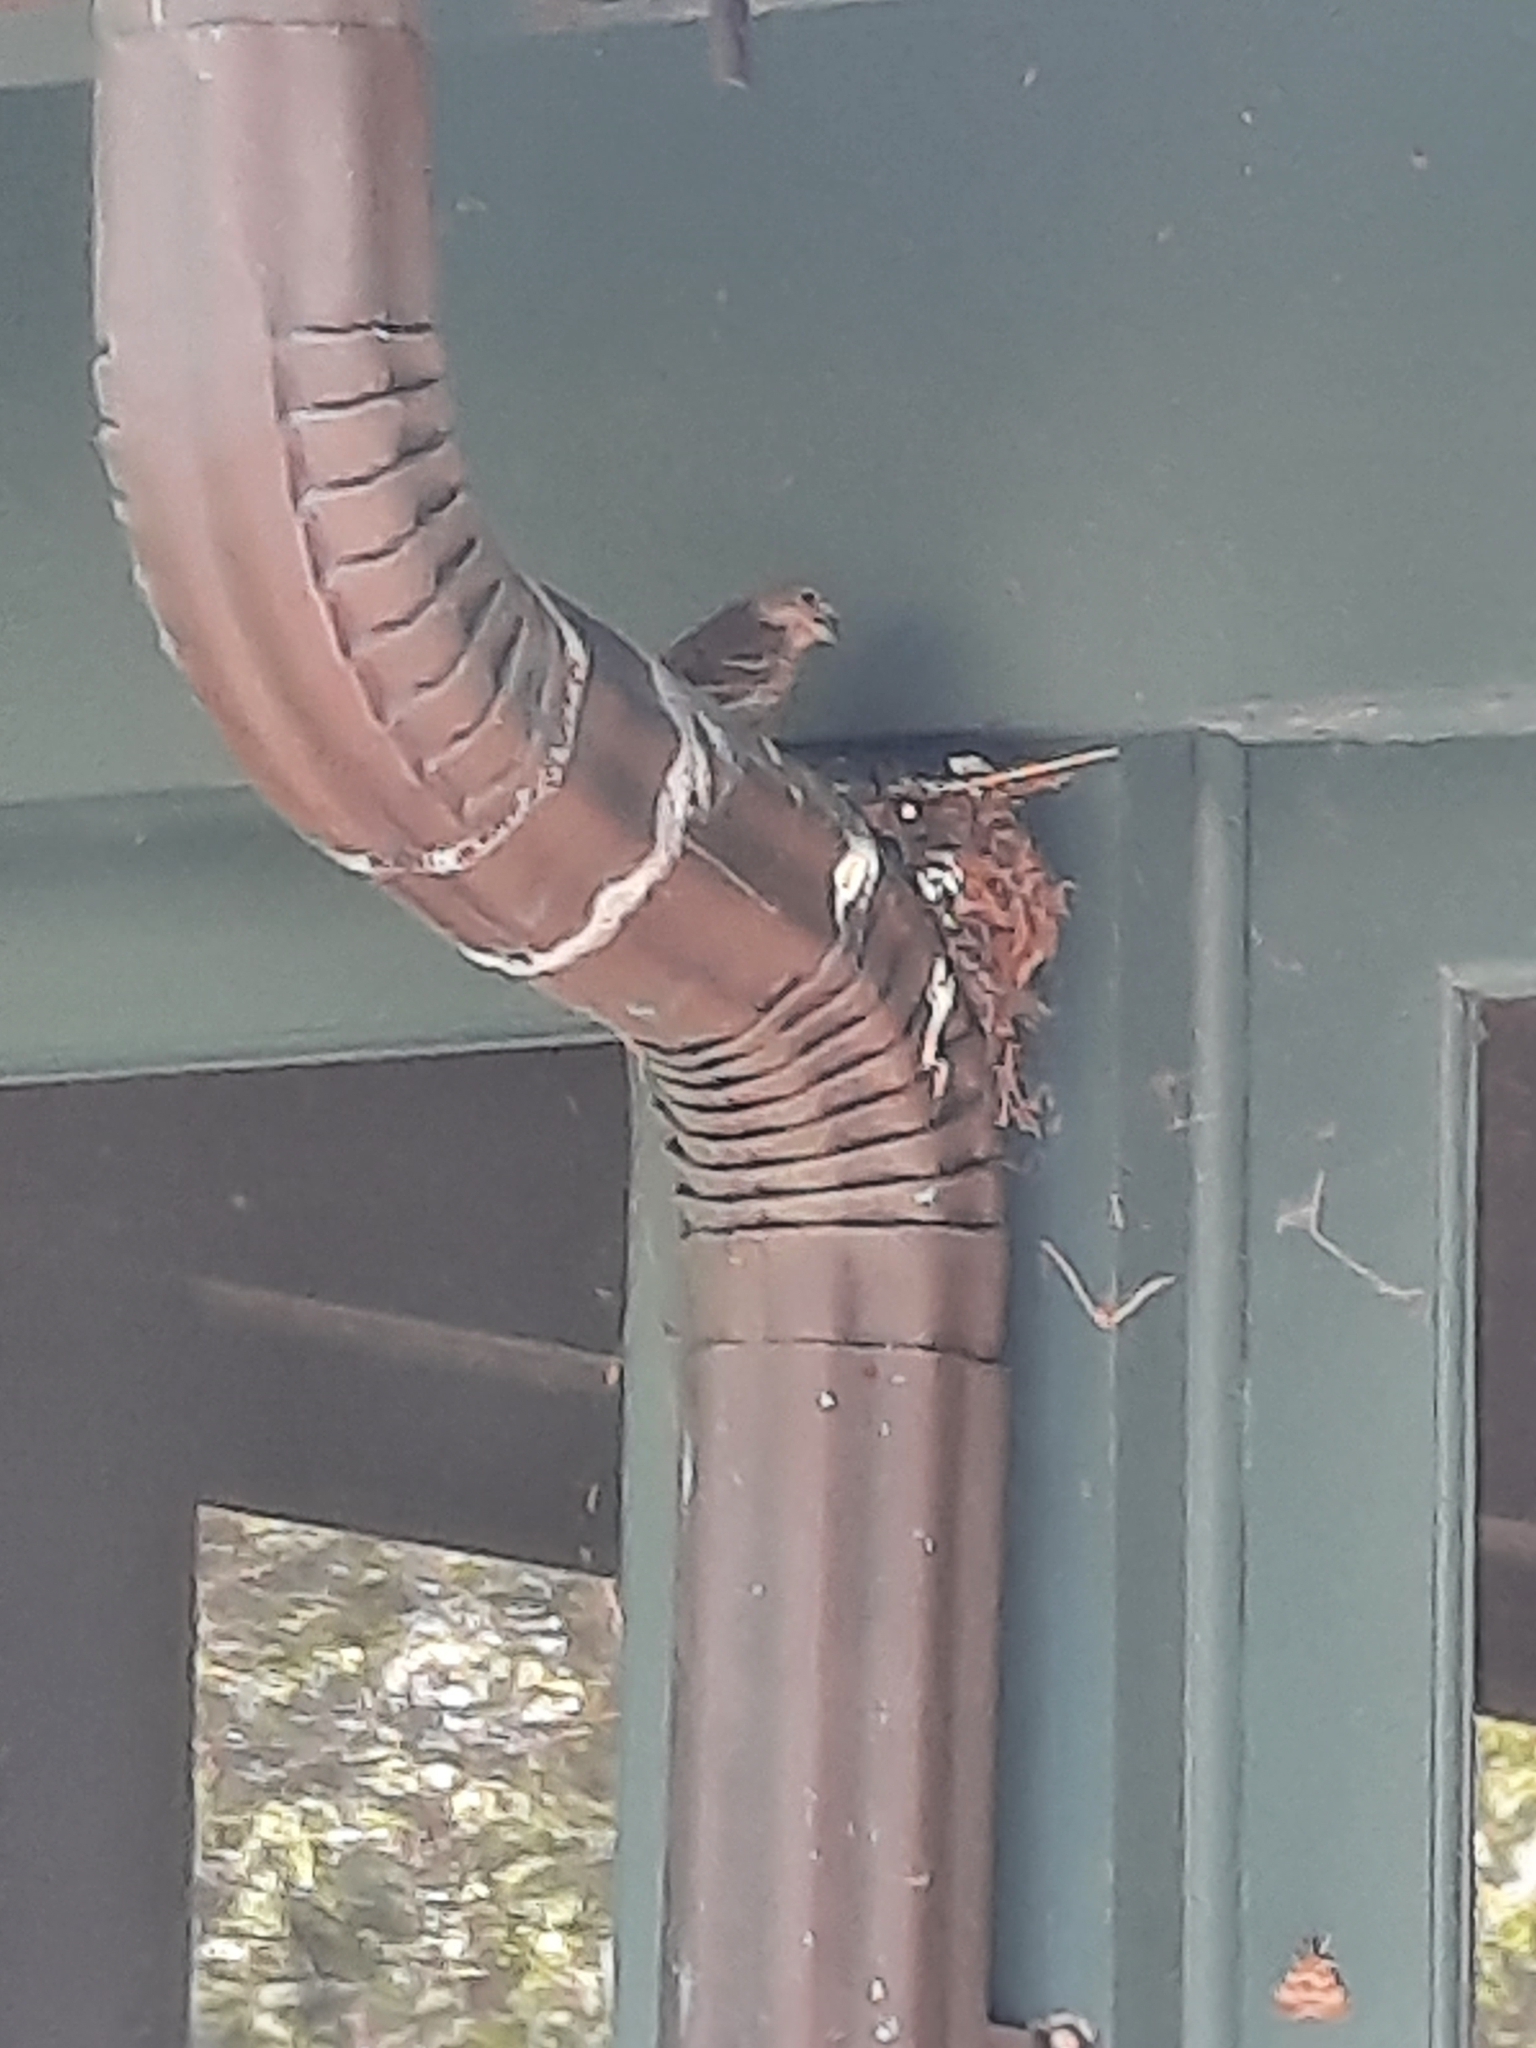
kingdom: Animalia
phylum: Chordata
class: Aves
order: Passeriformes
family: Fringillidae
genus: Haemorhous
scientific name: Haemorhous mexicanus
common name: House finch
